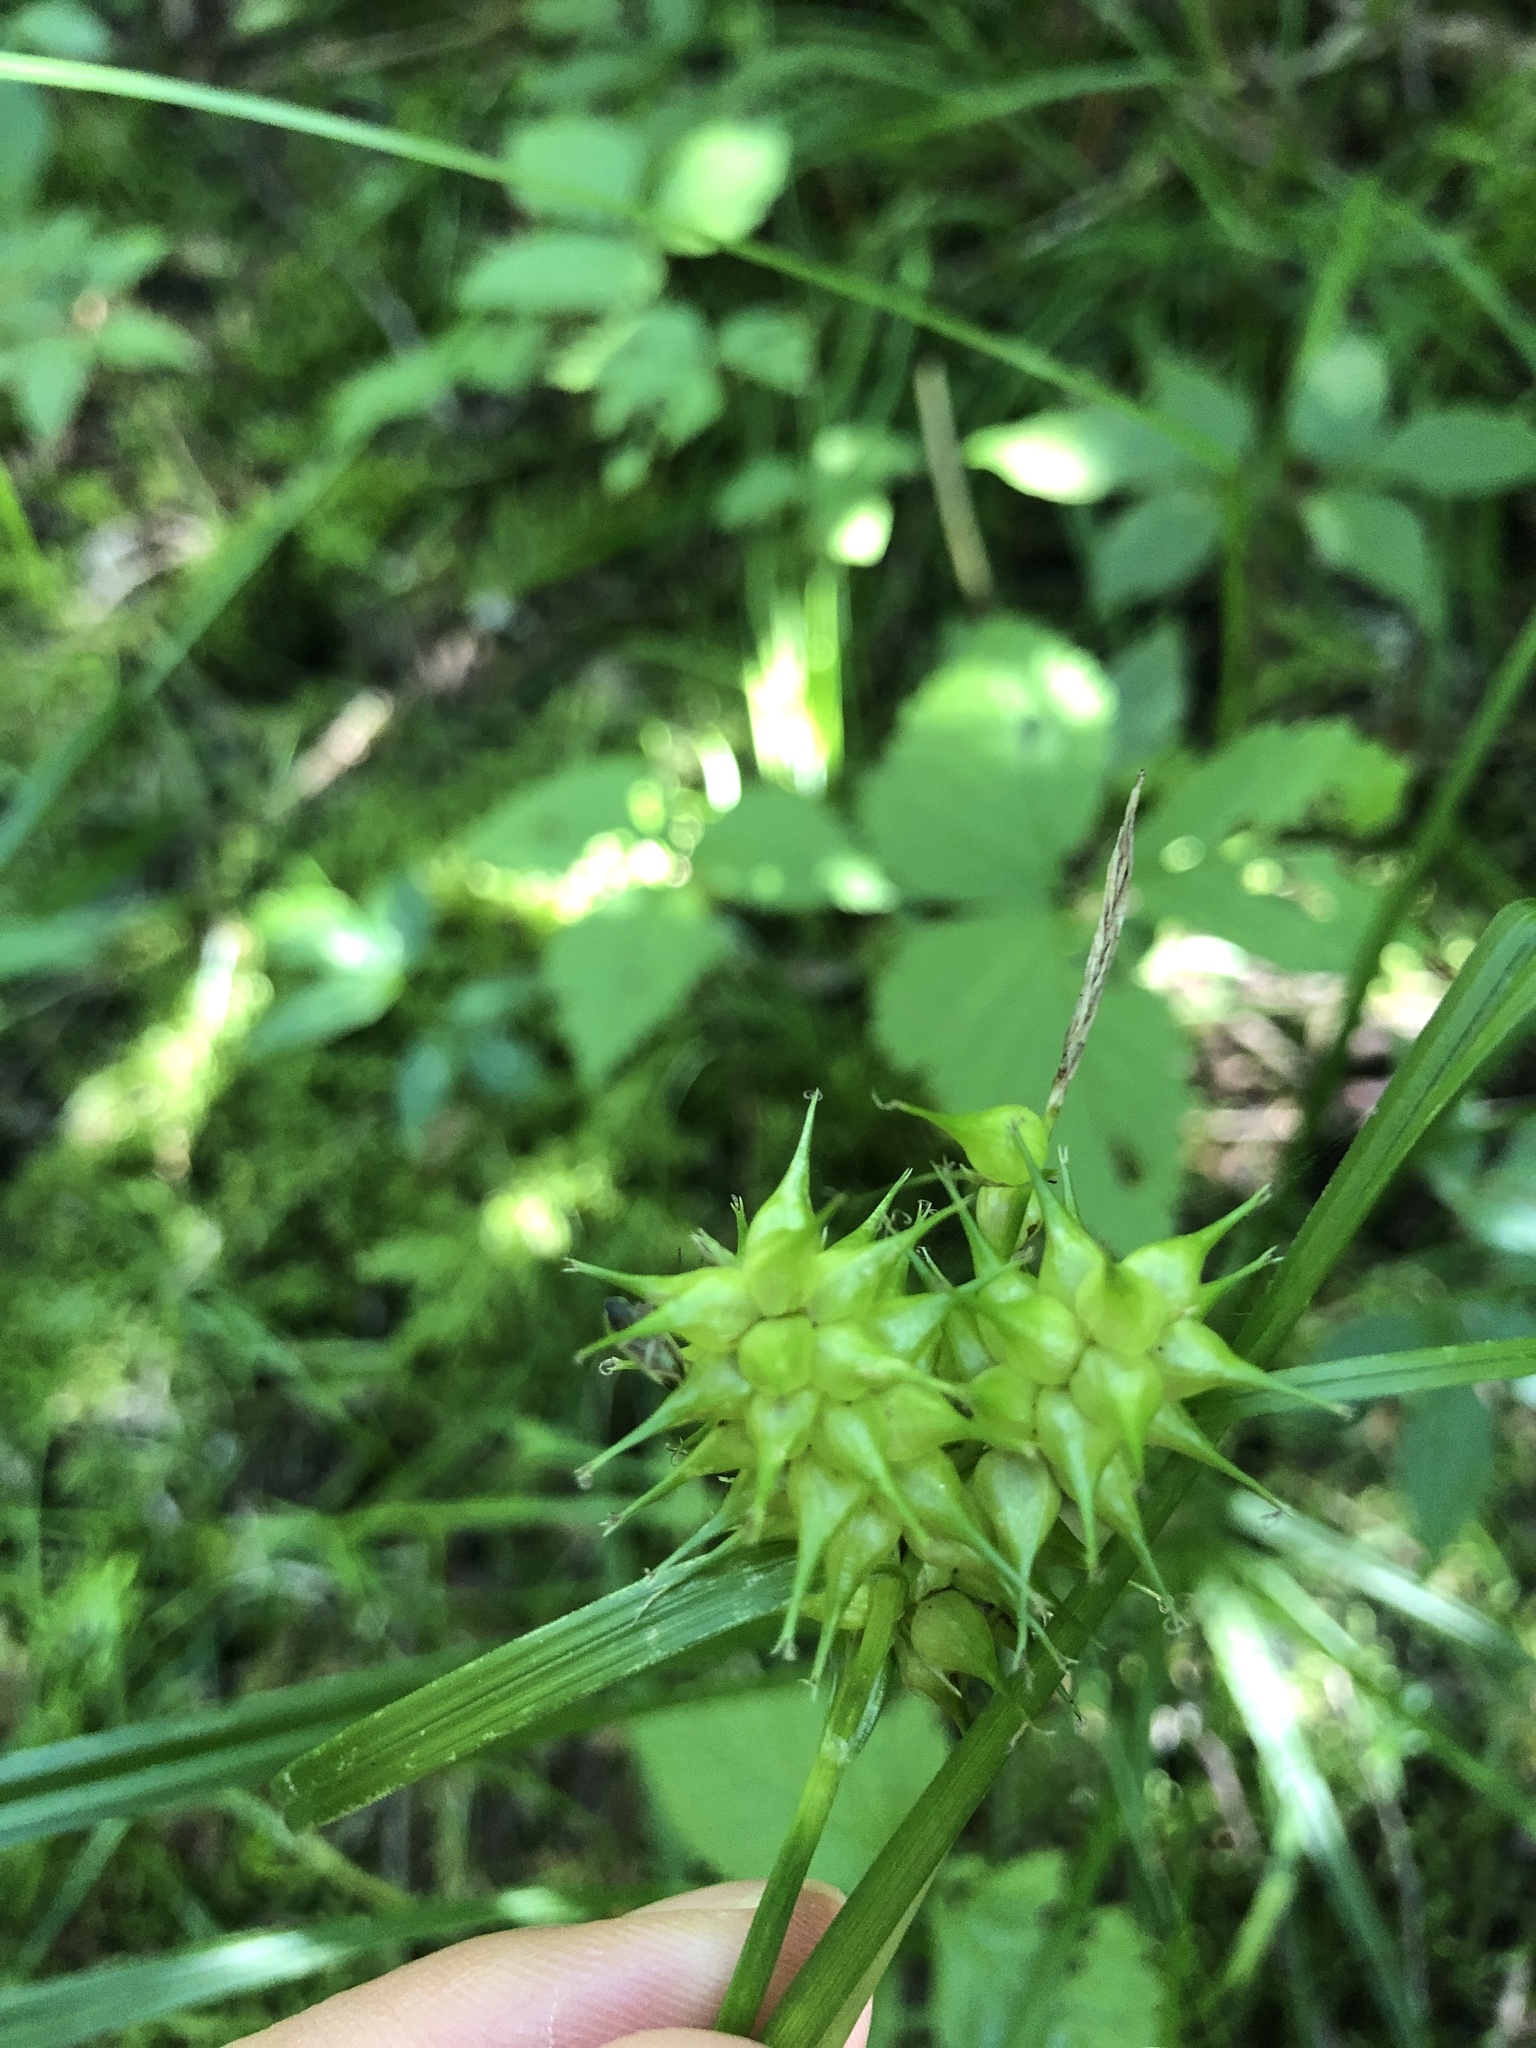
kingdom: Plantae
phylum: Tracheophyta
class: Liliopsida
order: Poales
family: Cyperaceae
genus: Carex
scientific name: Carex retrorsa
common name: Knot-sheath sedge
